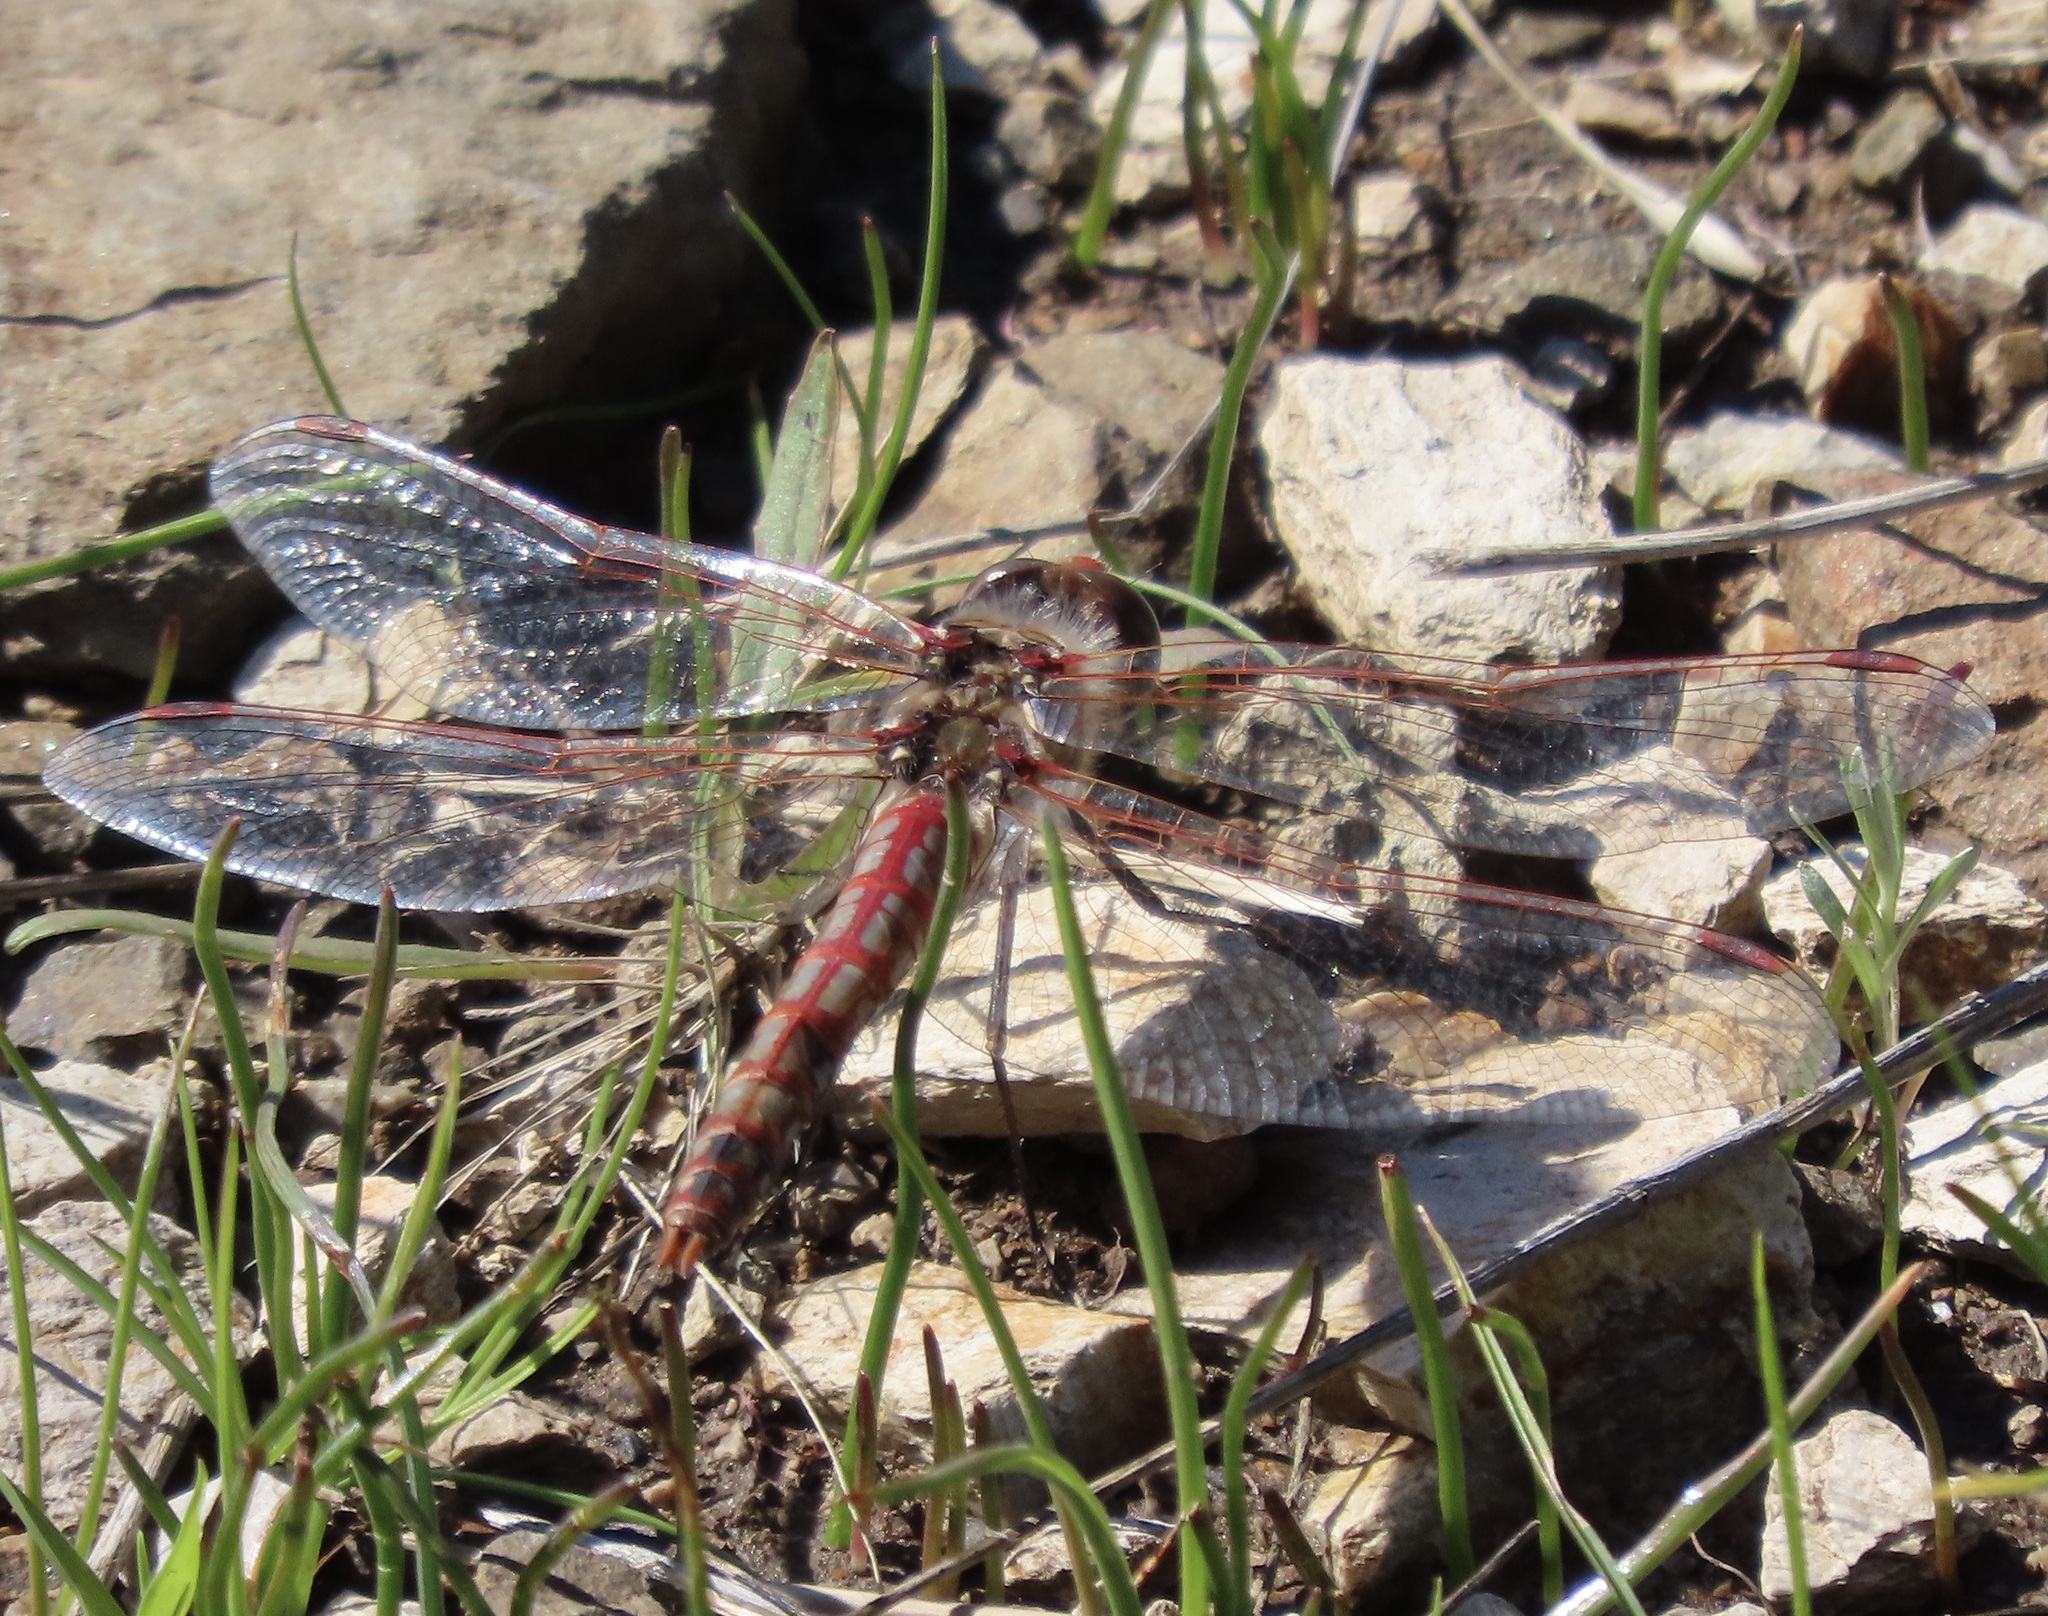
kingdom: Animalia
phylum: Arthropoda
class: Insecta
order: Odonata
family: Libellulidae
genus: Sympetrum
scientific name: Sympetrum corruptum
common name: Variegated meadowhawk
